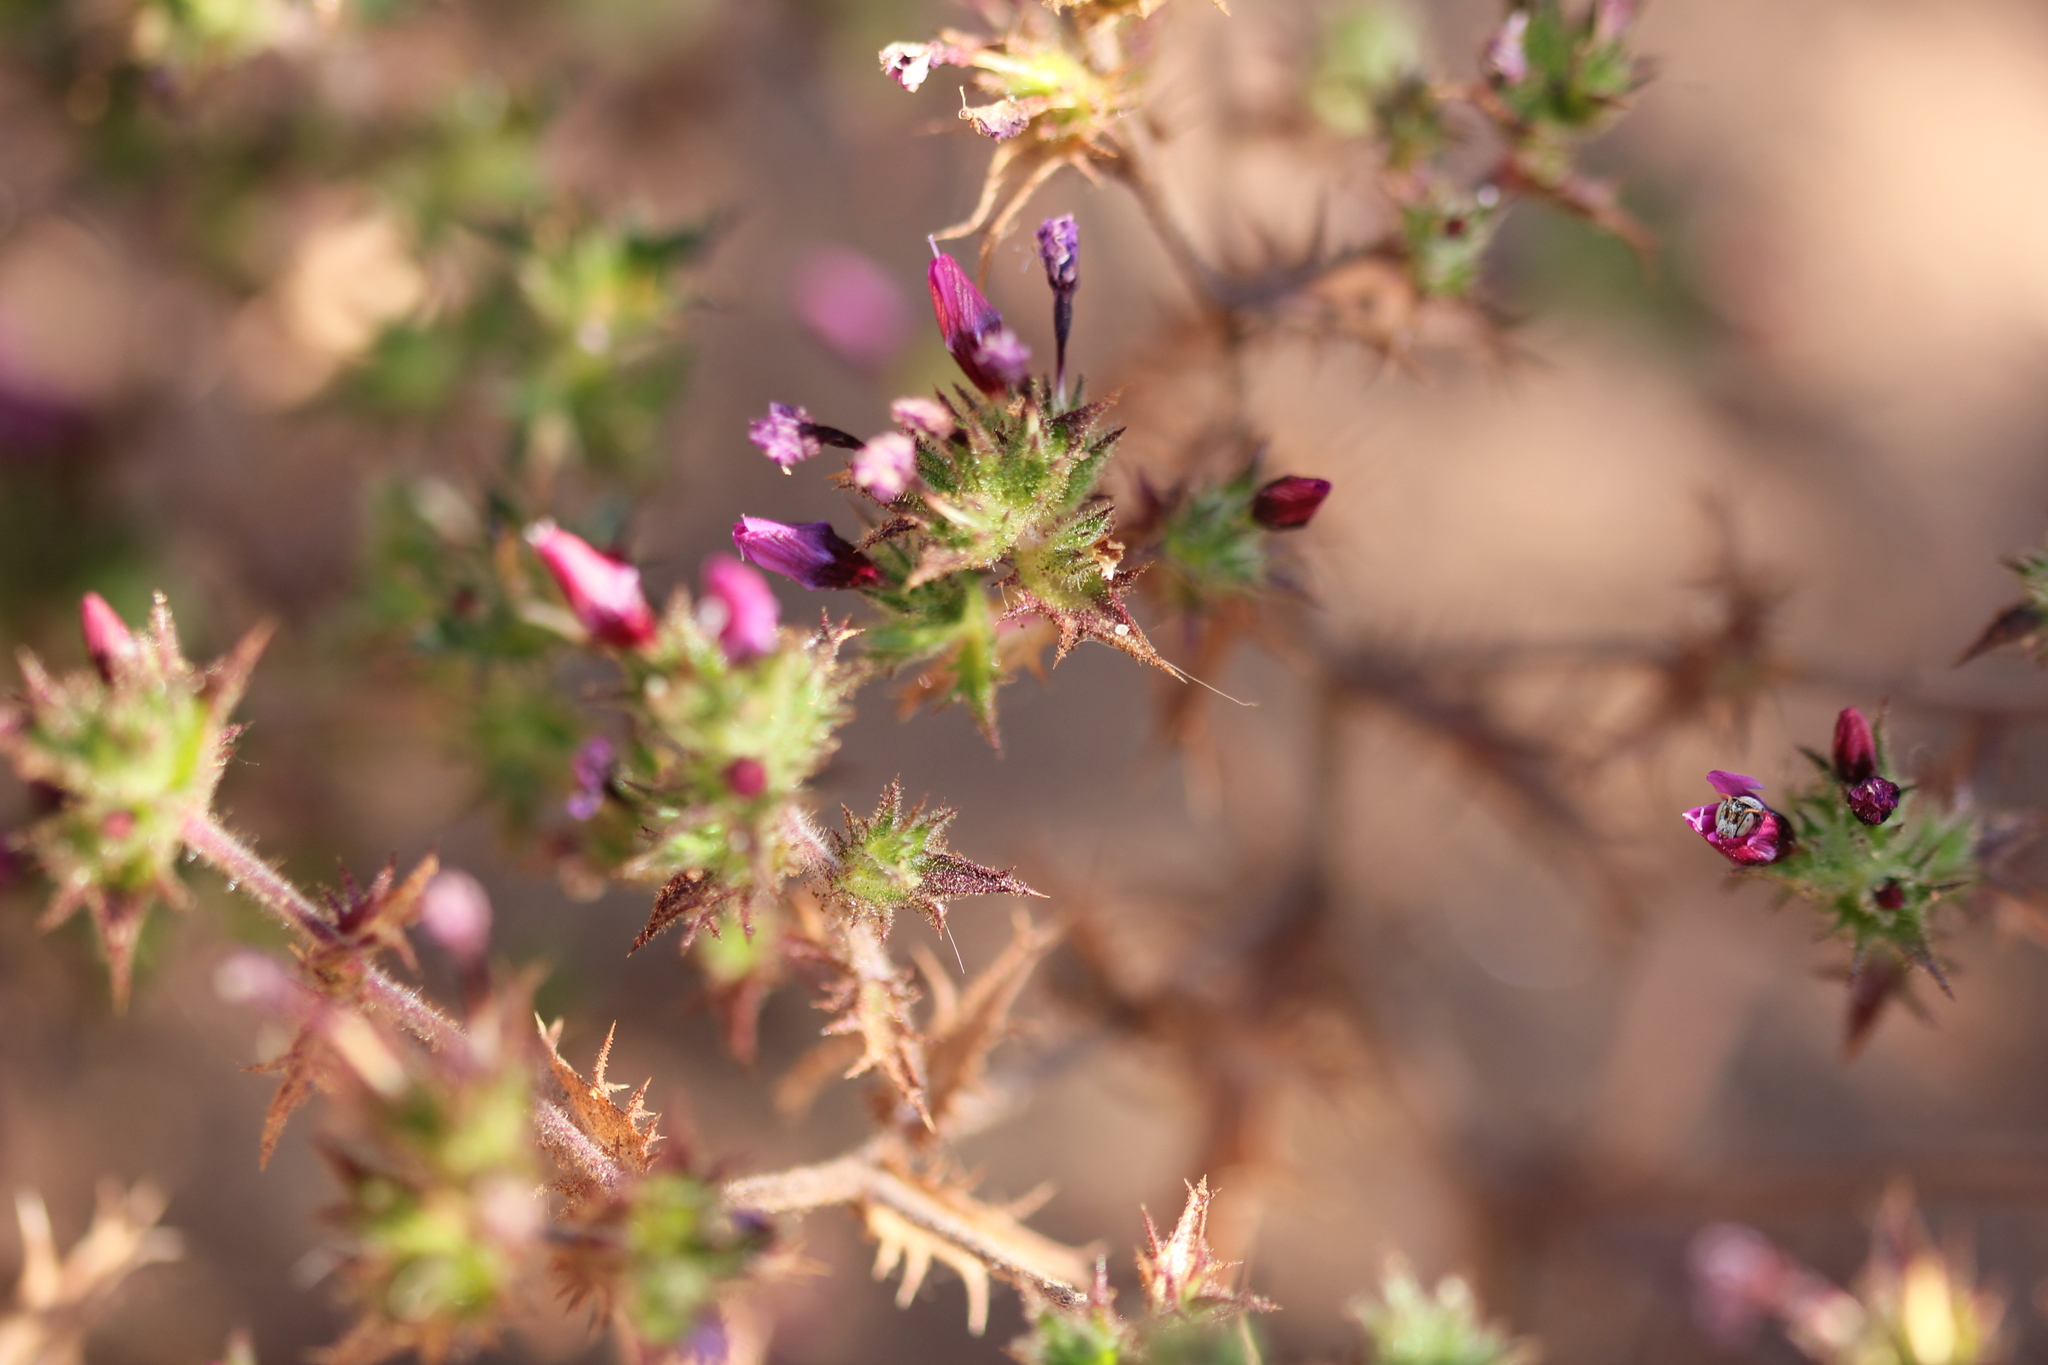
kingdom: Plantae
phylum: Tracheophyta
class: Magnoliopsida
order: Ericales
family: Polemoniaceae
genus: Navarretia
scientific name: Navarretia hamata
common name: Hooked navarretia
